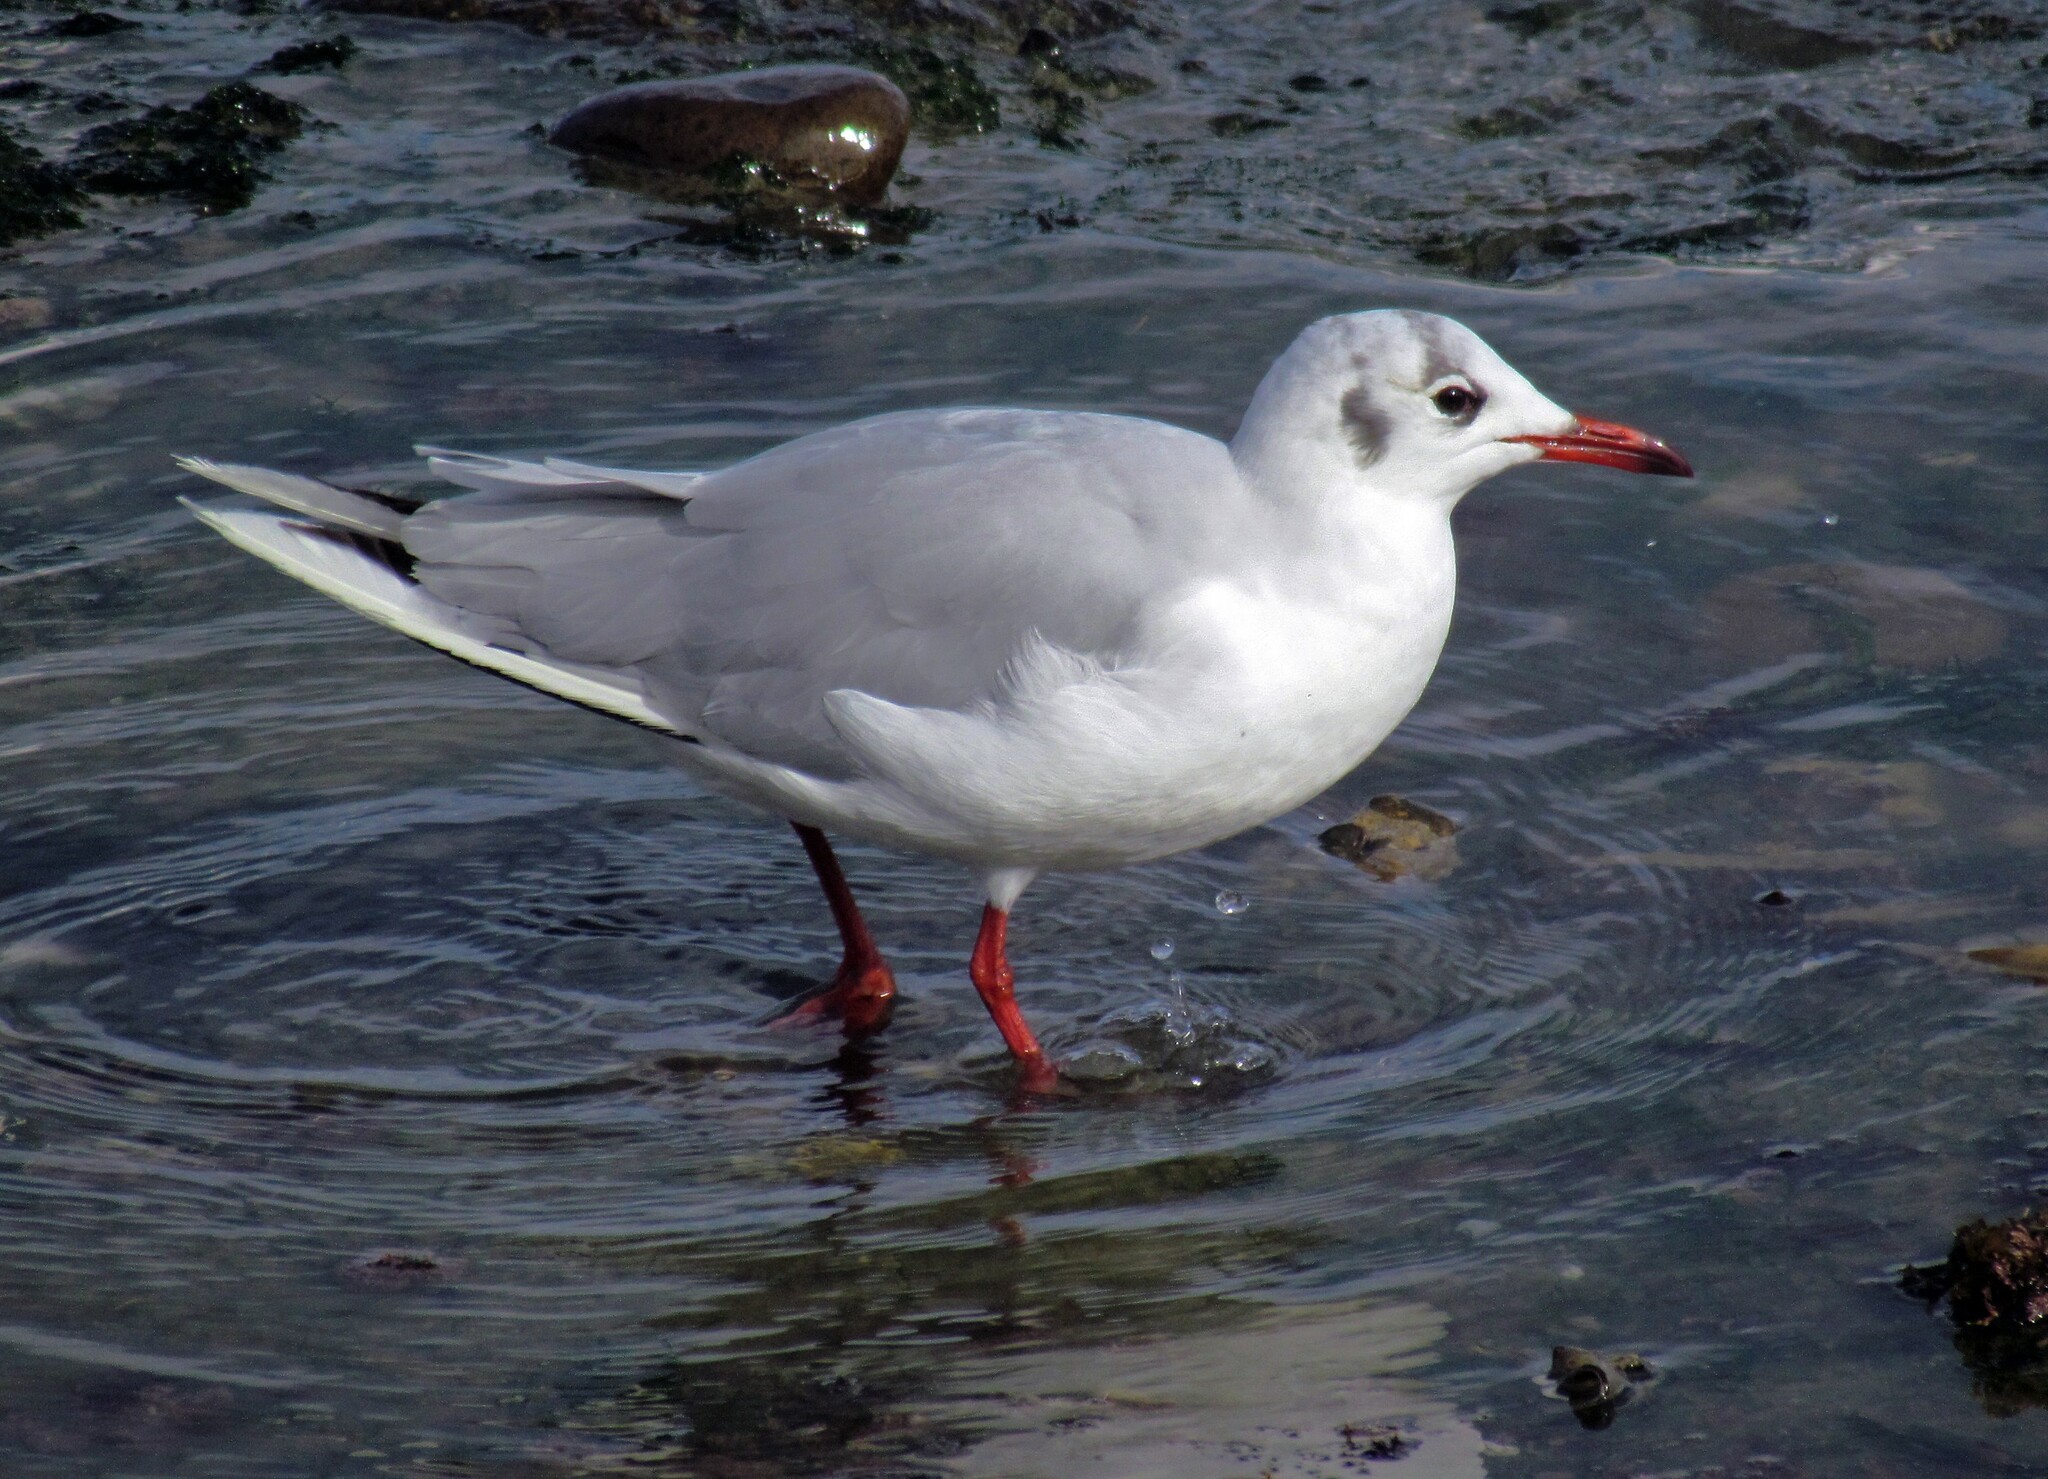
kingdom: Animalia
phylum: Chordata
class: Aves
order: Charadriiformes
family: Laridae
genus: Chroicocephalus
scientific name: Chroicocephalus maculipennis
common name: Brown-hooded gull
